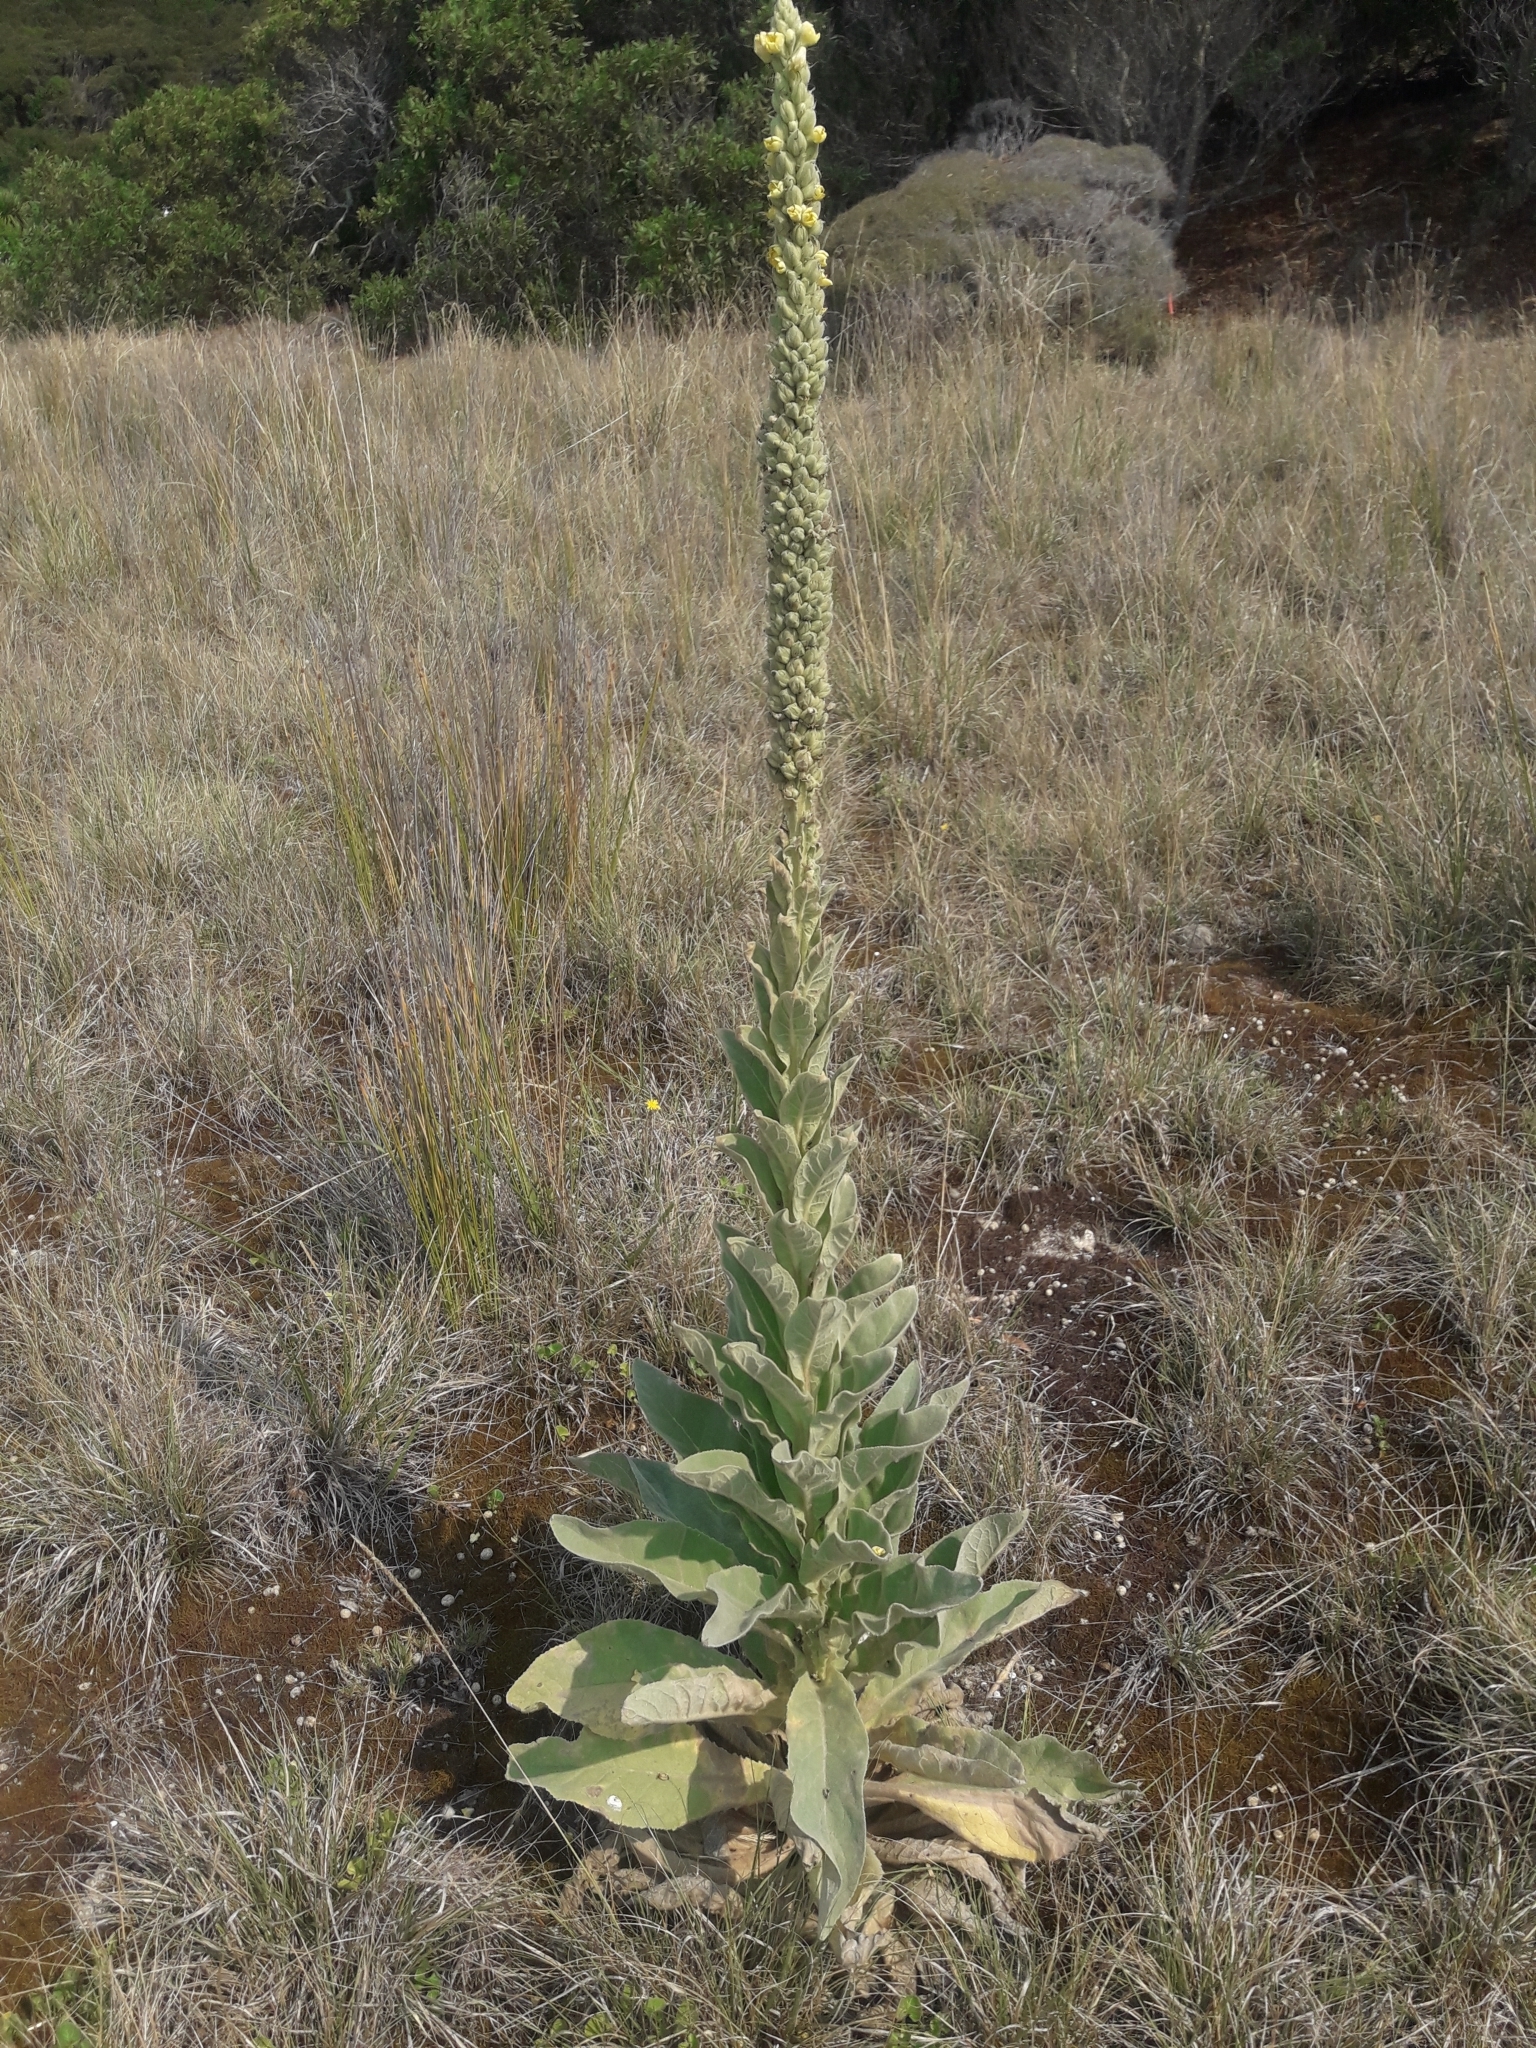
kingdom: Plantae
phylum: Tracheophyta
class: Magnoliopsida
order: Lamiales
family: Scrophulariaceae
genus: Verbascum
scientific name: Verbascum thapsus
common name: Common mullein
